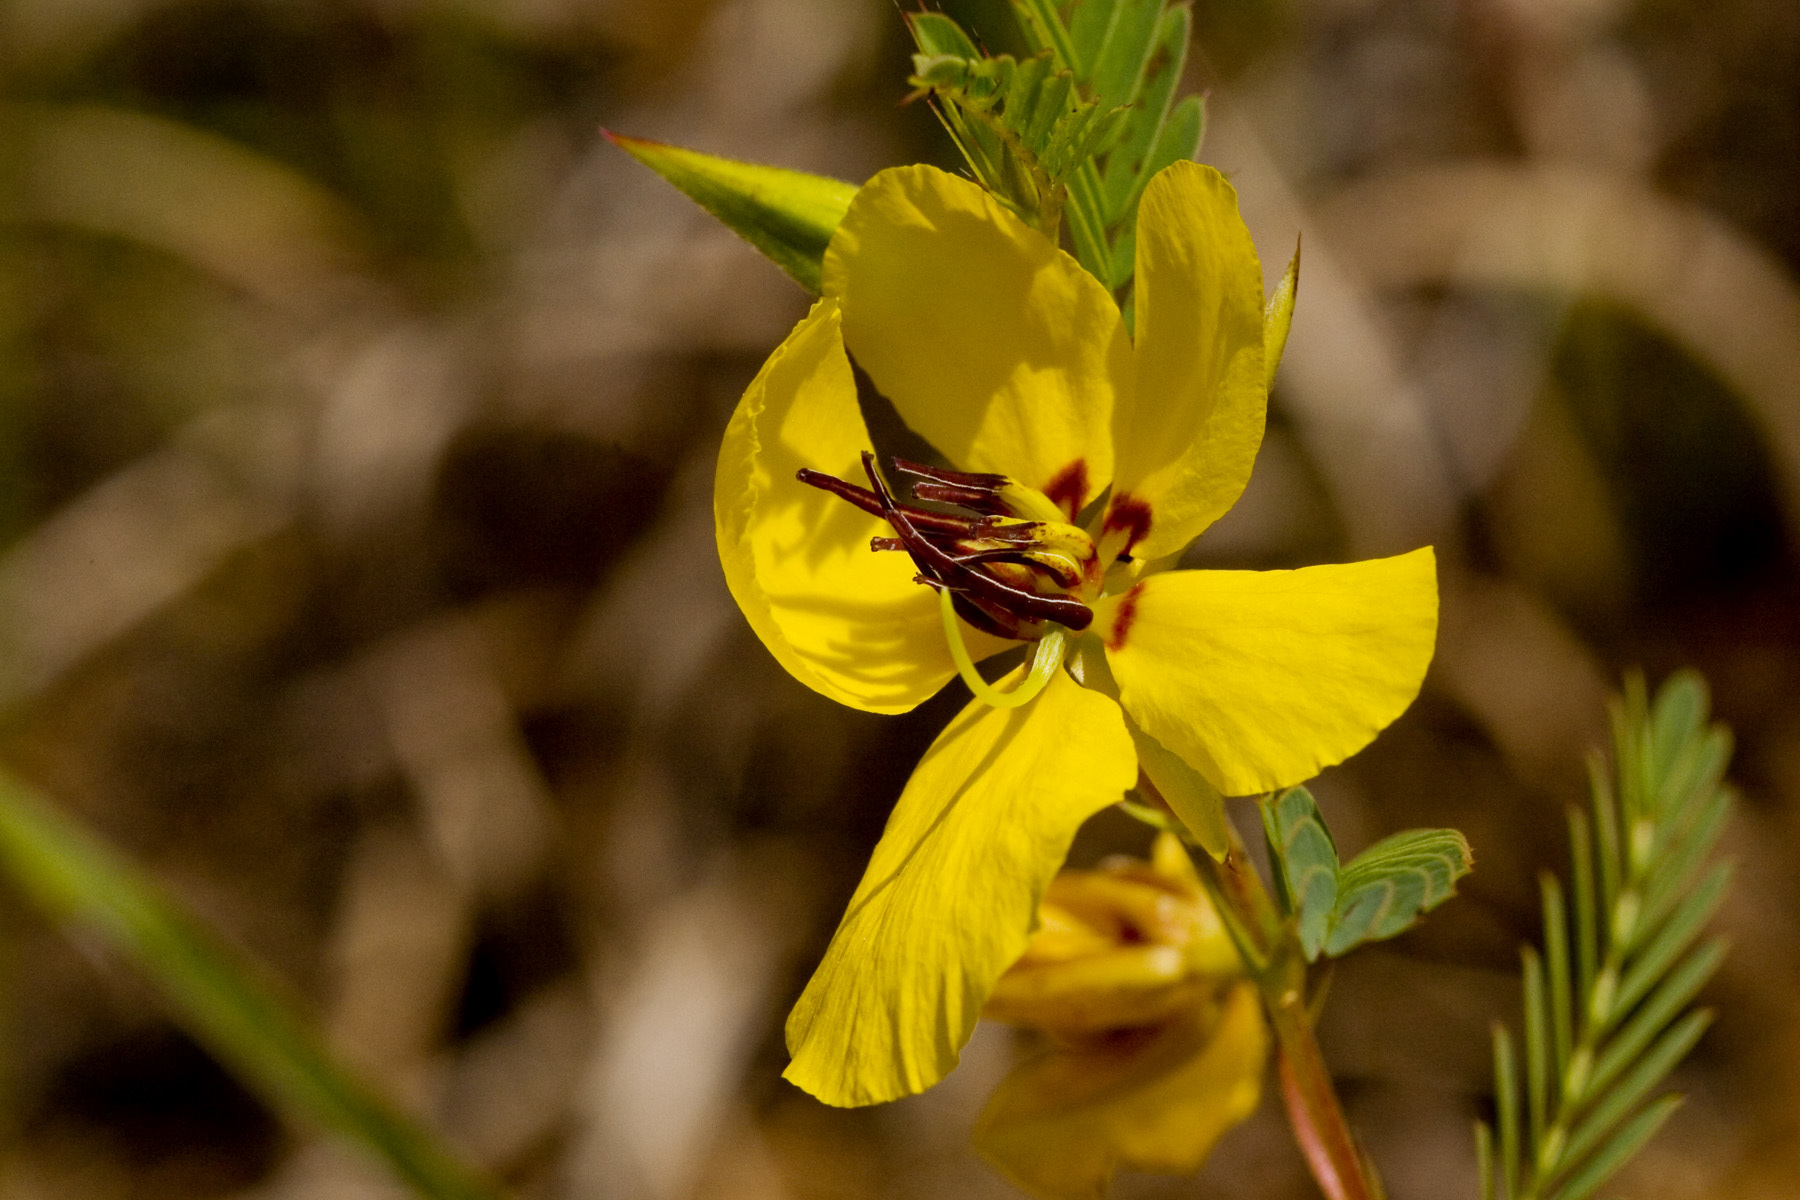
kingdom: Plantae
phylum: Tracheophyta
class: Magnoliopsida
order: Fabales
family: Fabaceae
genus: Chamaecrista
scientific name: Chamaecrista fasciculata
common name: Golden cassia
